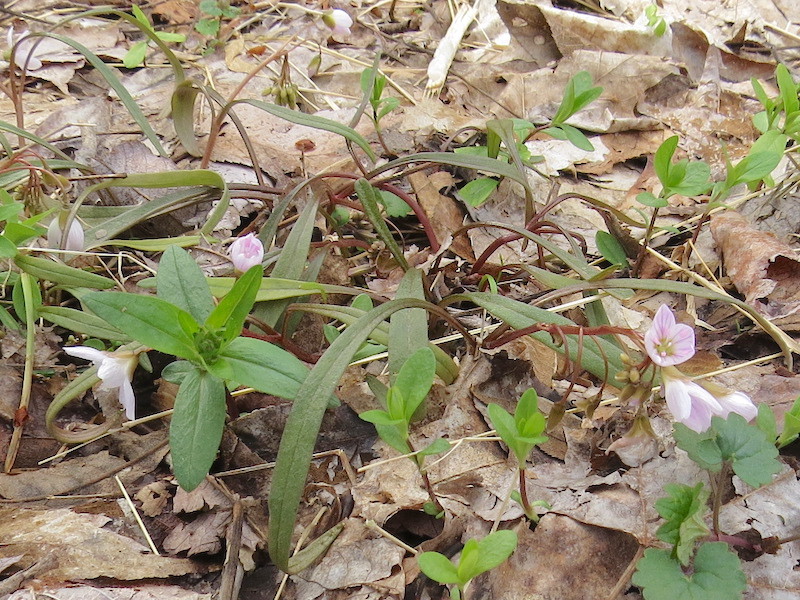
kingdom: Plantae
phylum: Tracheophyta
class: Magnoliopsida
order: Caryophyllales
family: Montiaceae
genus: Claytonia
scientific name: Claytonia virginica
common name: Virginia springbeauty
